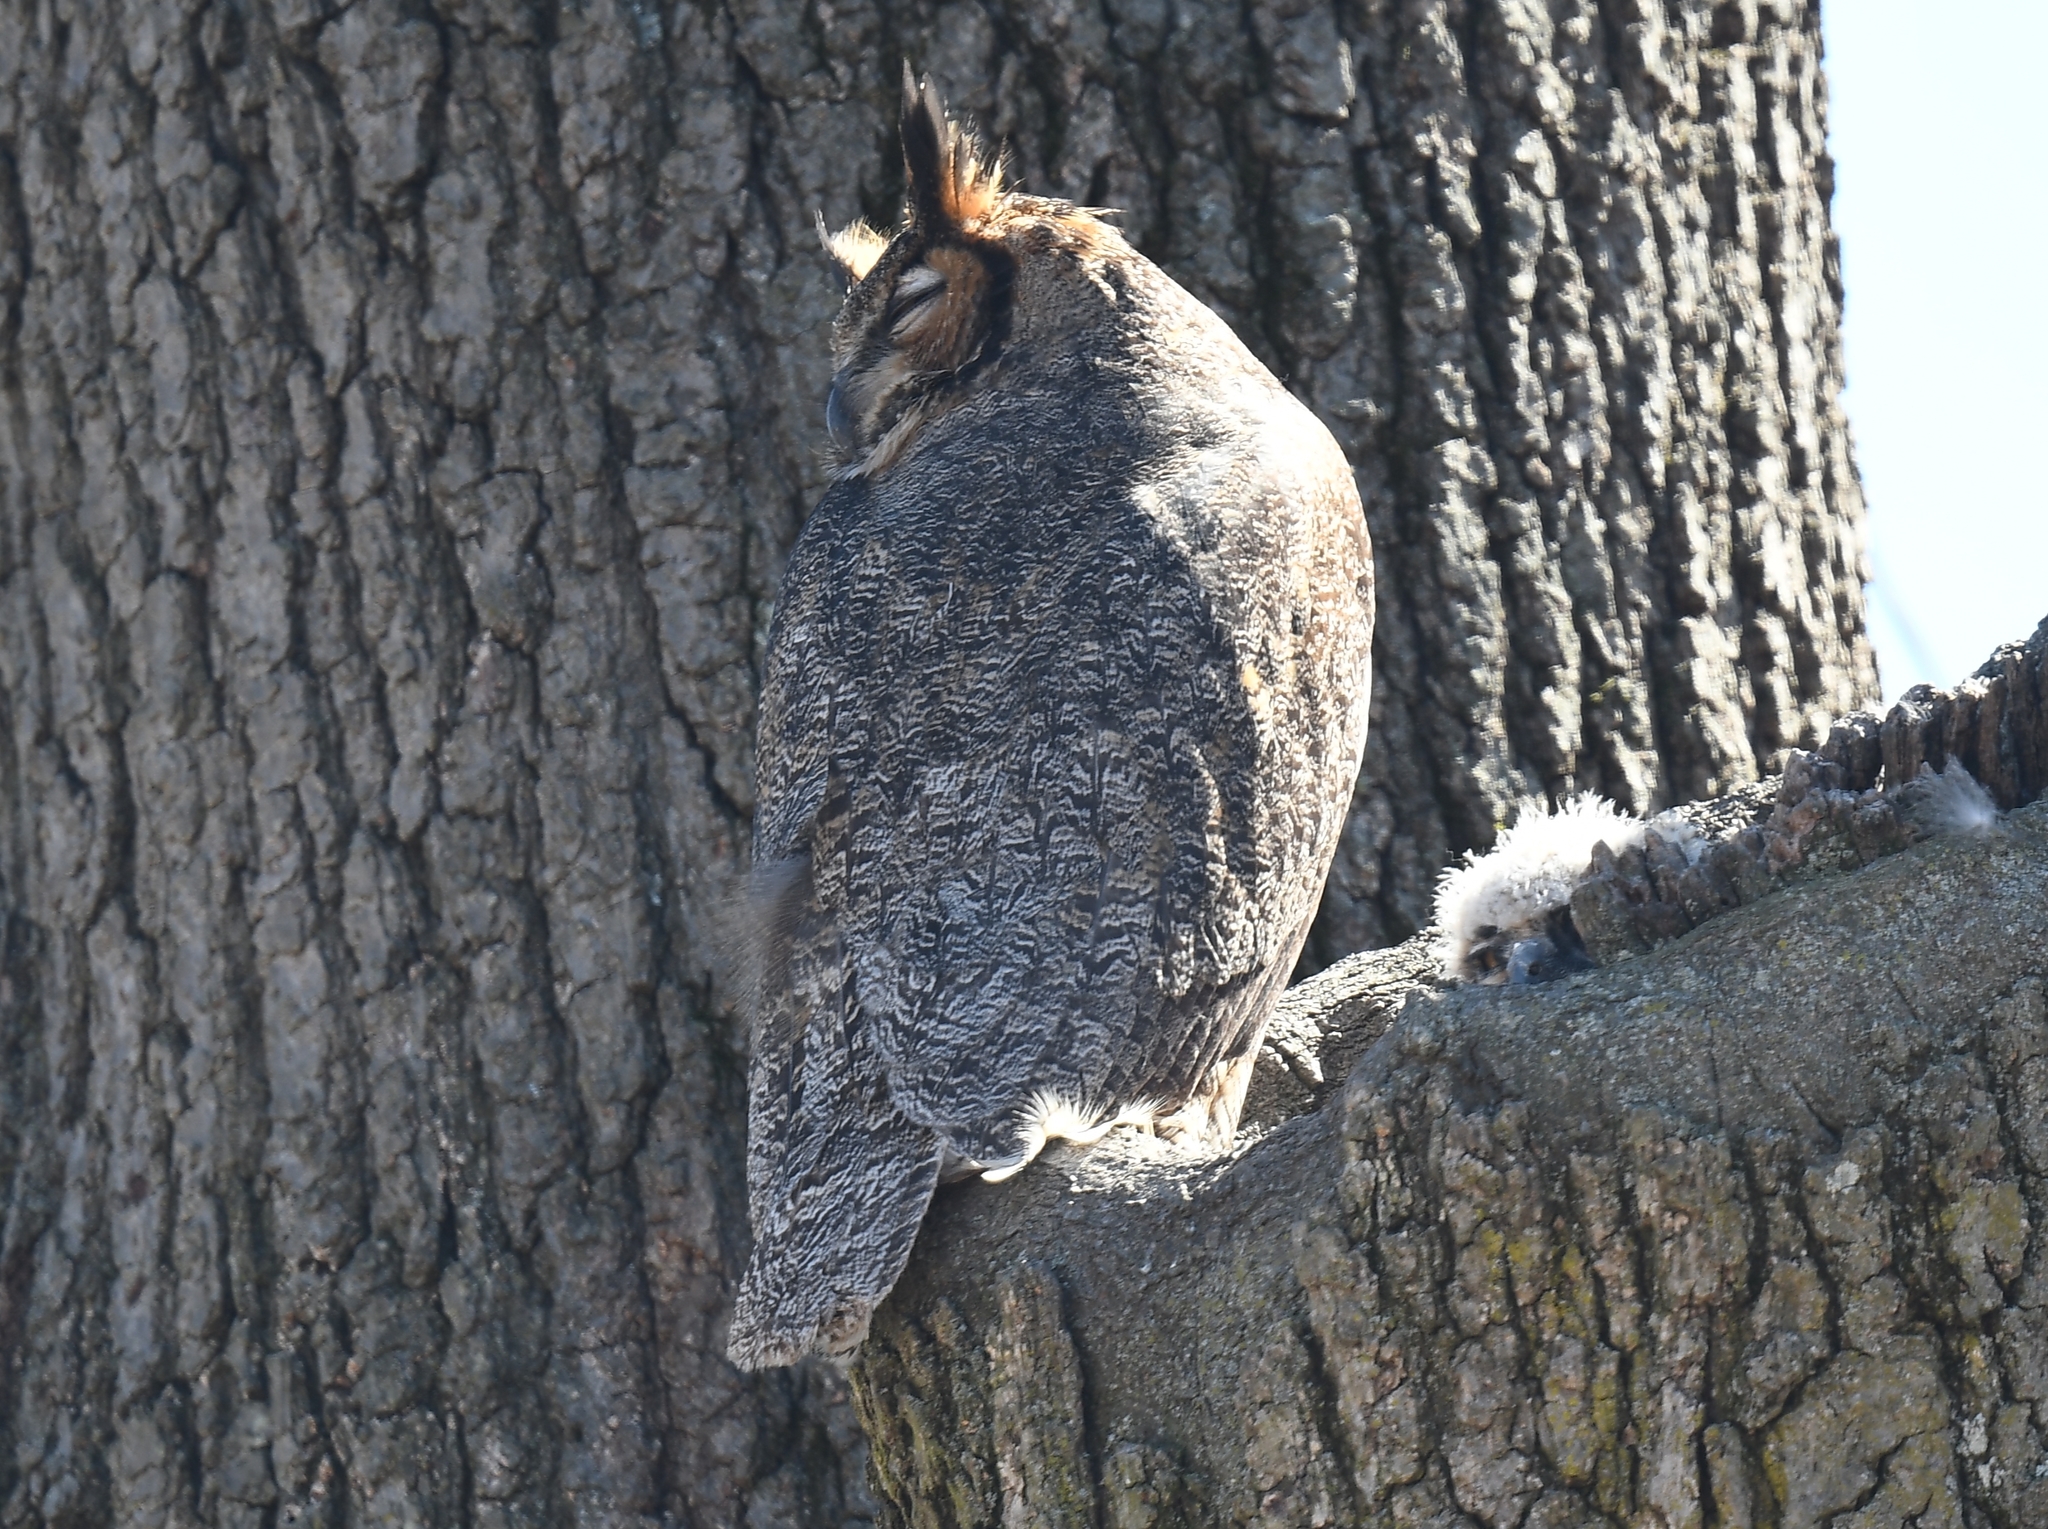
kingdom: Animalia
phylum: Chordata
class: Aves
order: Strigiformes
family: Strigidae
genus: Bubo
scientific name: Bubo virginianus
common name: Great horned owl
